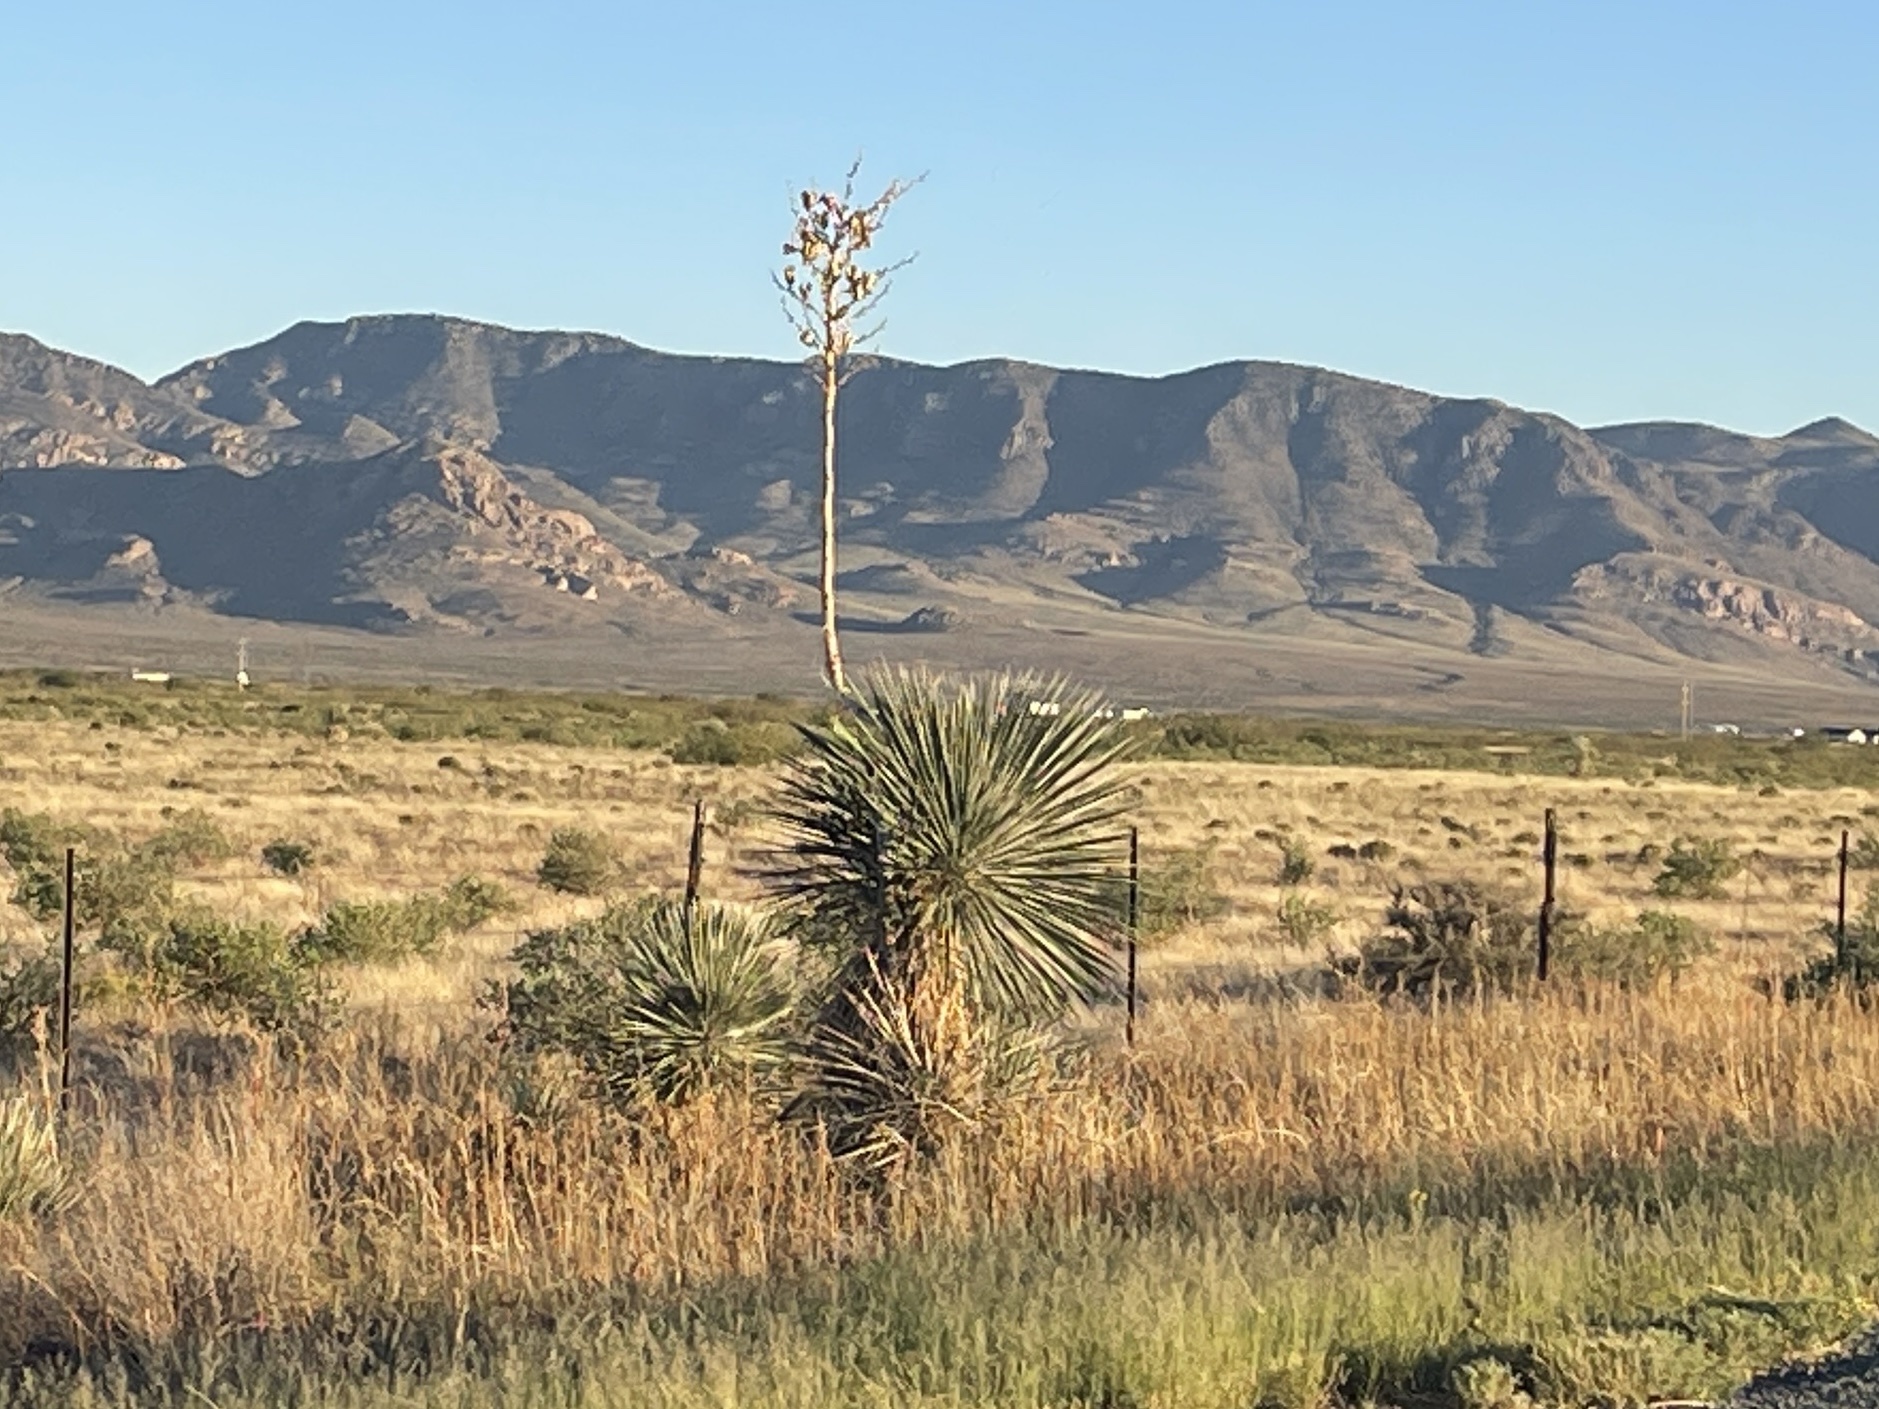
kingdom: Plantae
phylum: Tracheophyta
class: Liliopsida
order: Asparagales
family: Asparagaceae
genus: Yucca
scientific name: Yucca elata
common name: Palmella
